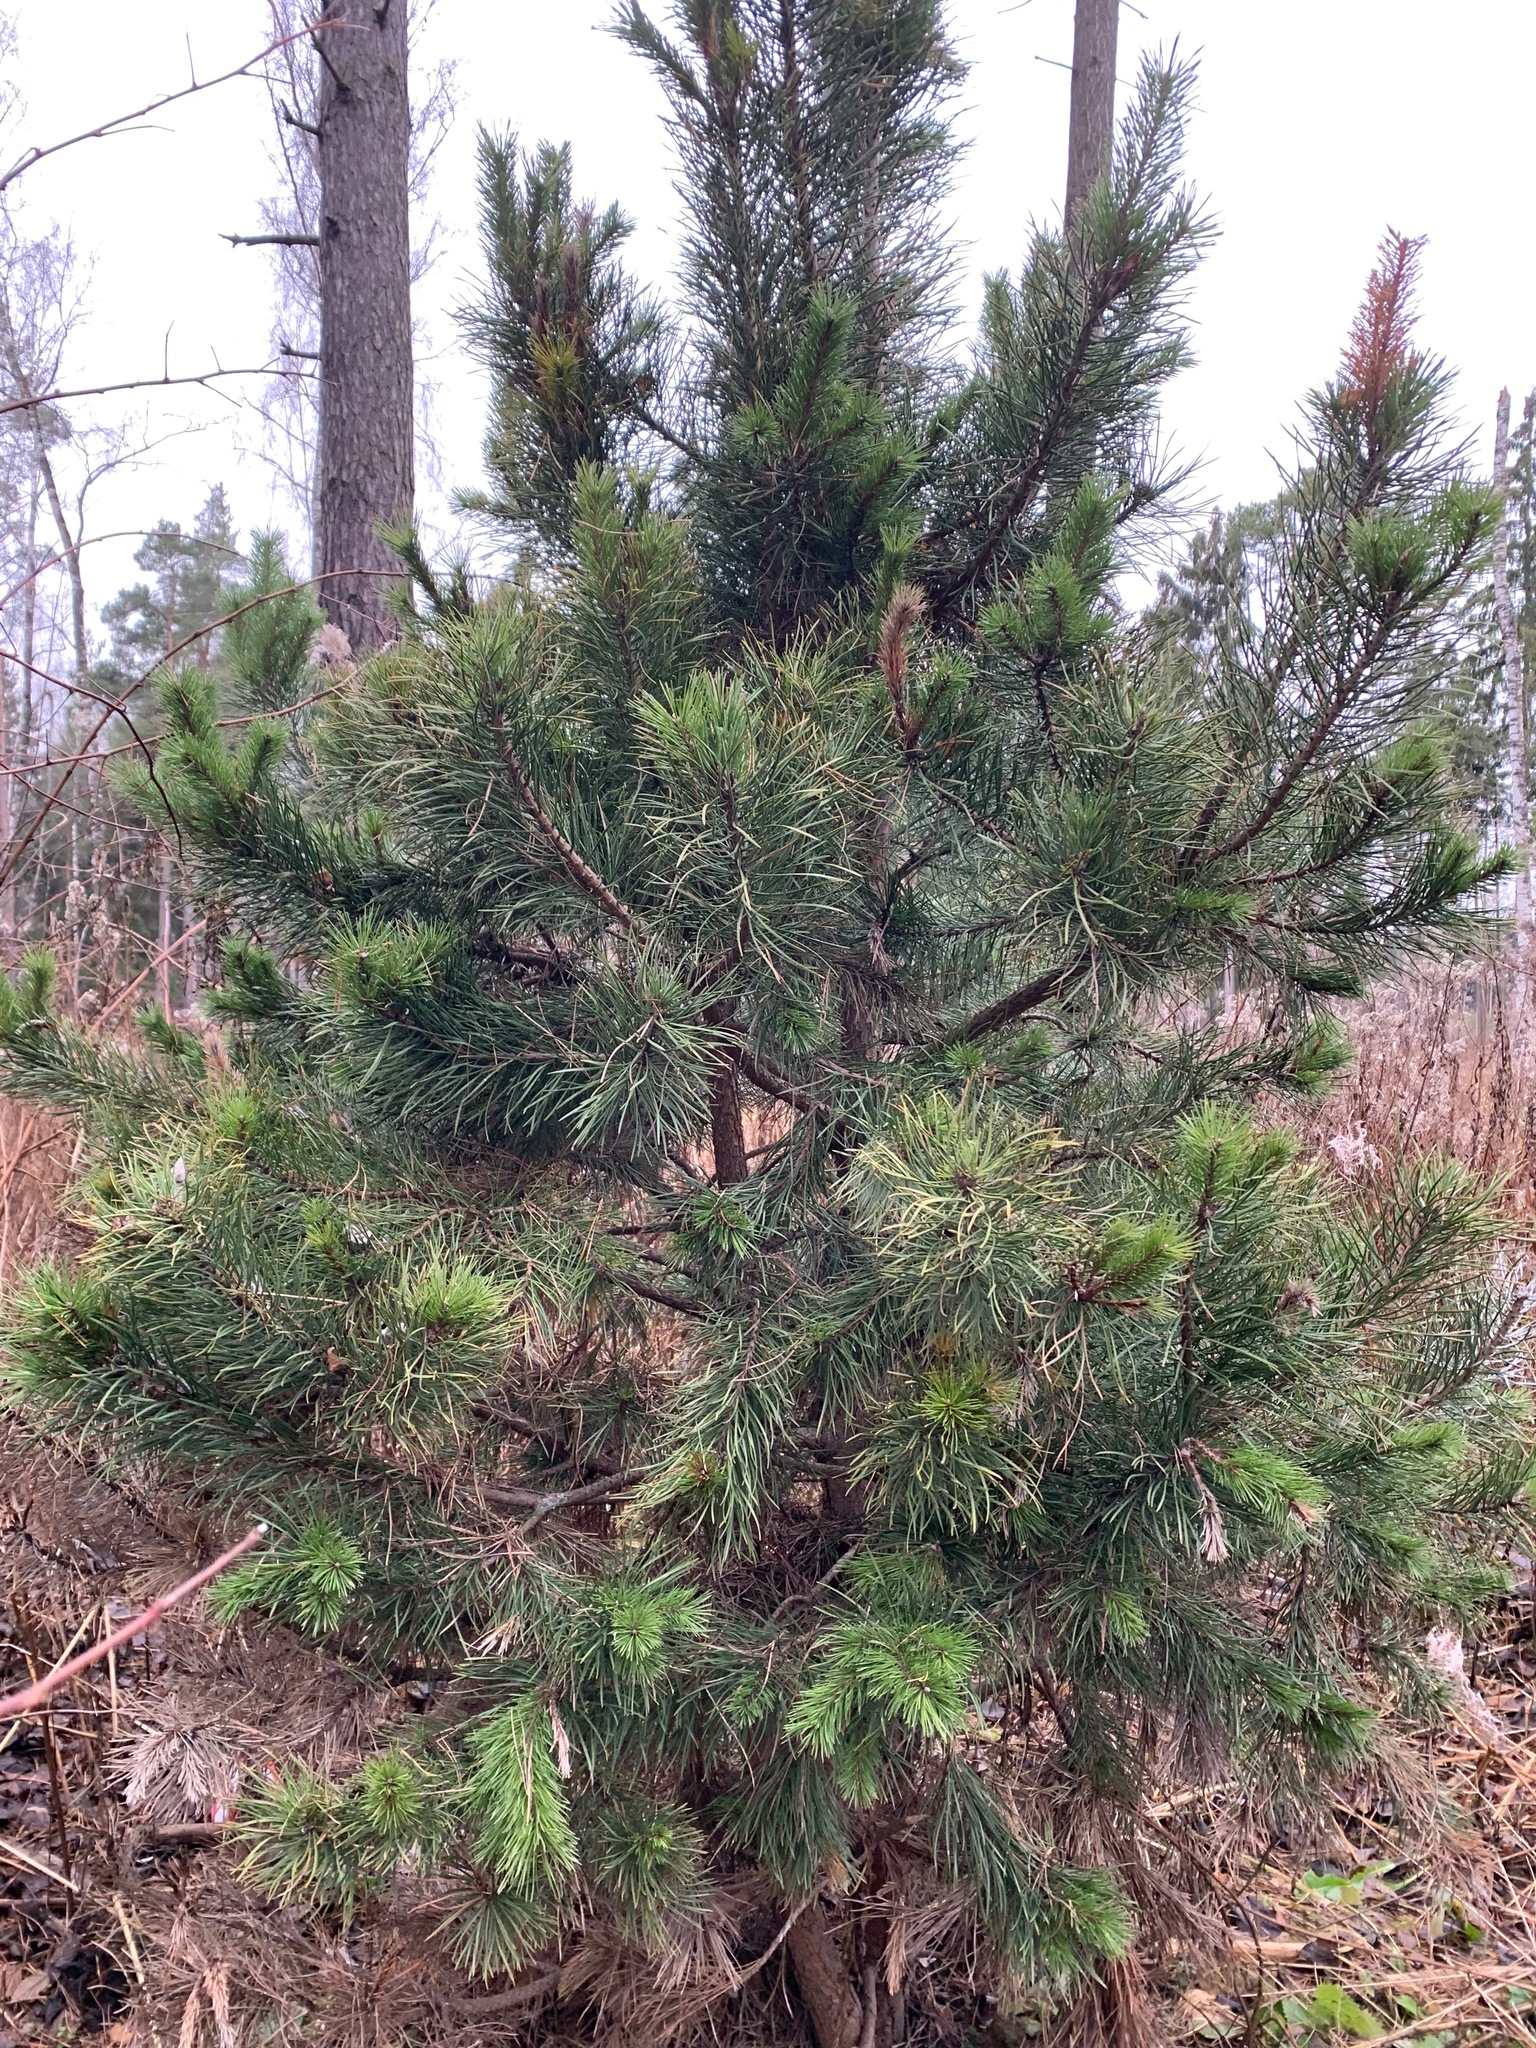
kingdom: Plantae
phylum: Tracheophyta
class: Pinopsida
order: Pinales
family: Pinaceae
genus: Pinus
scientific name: Pinus sylvestris
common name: Scots pine
